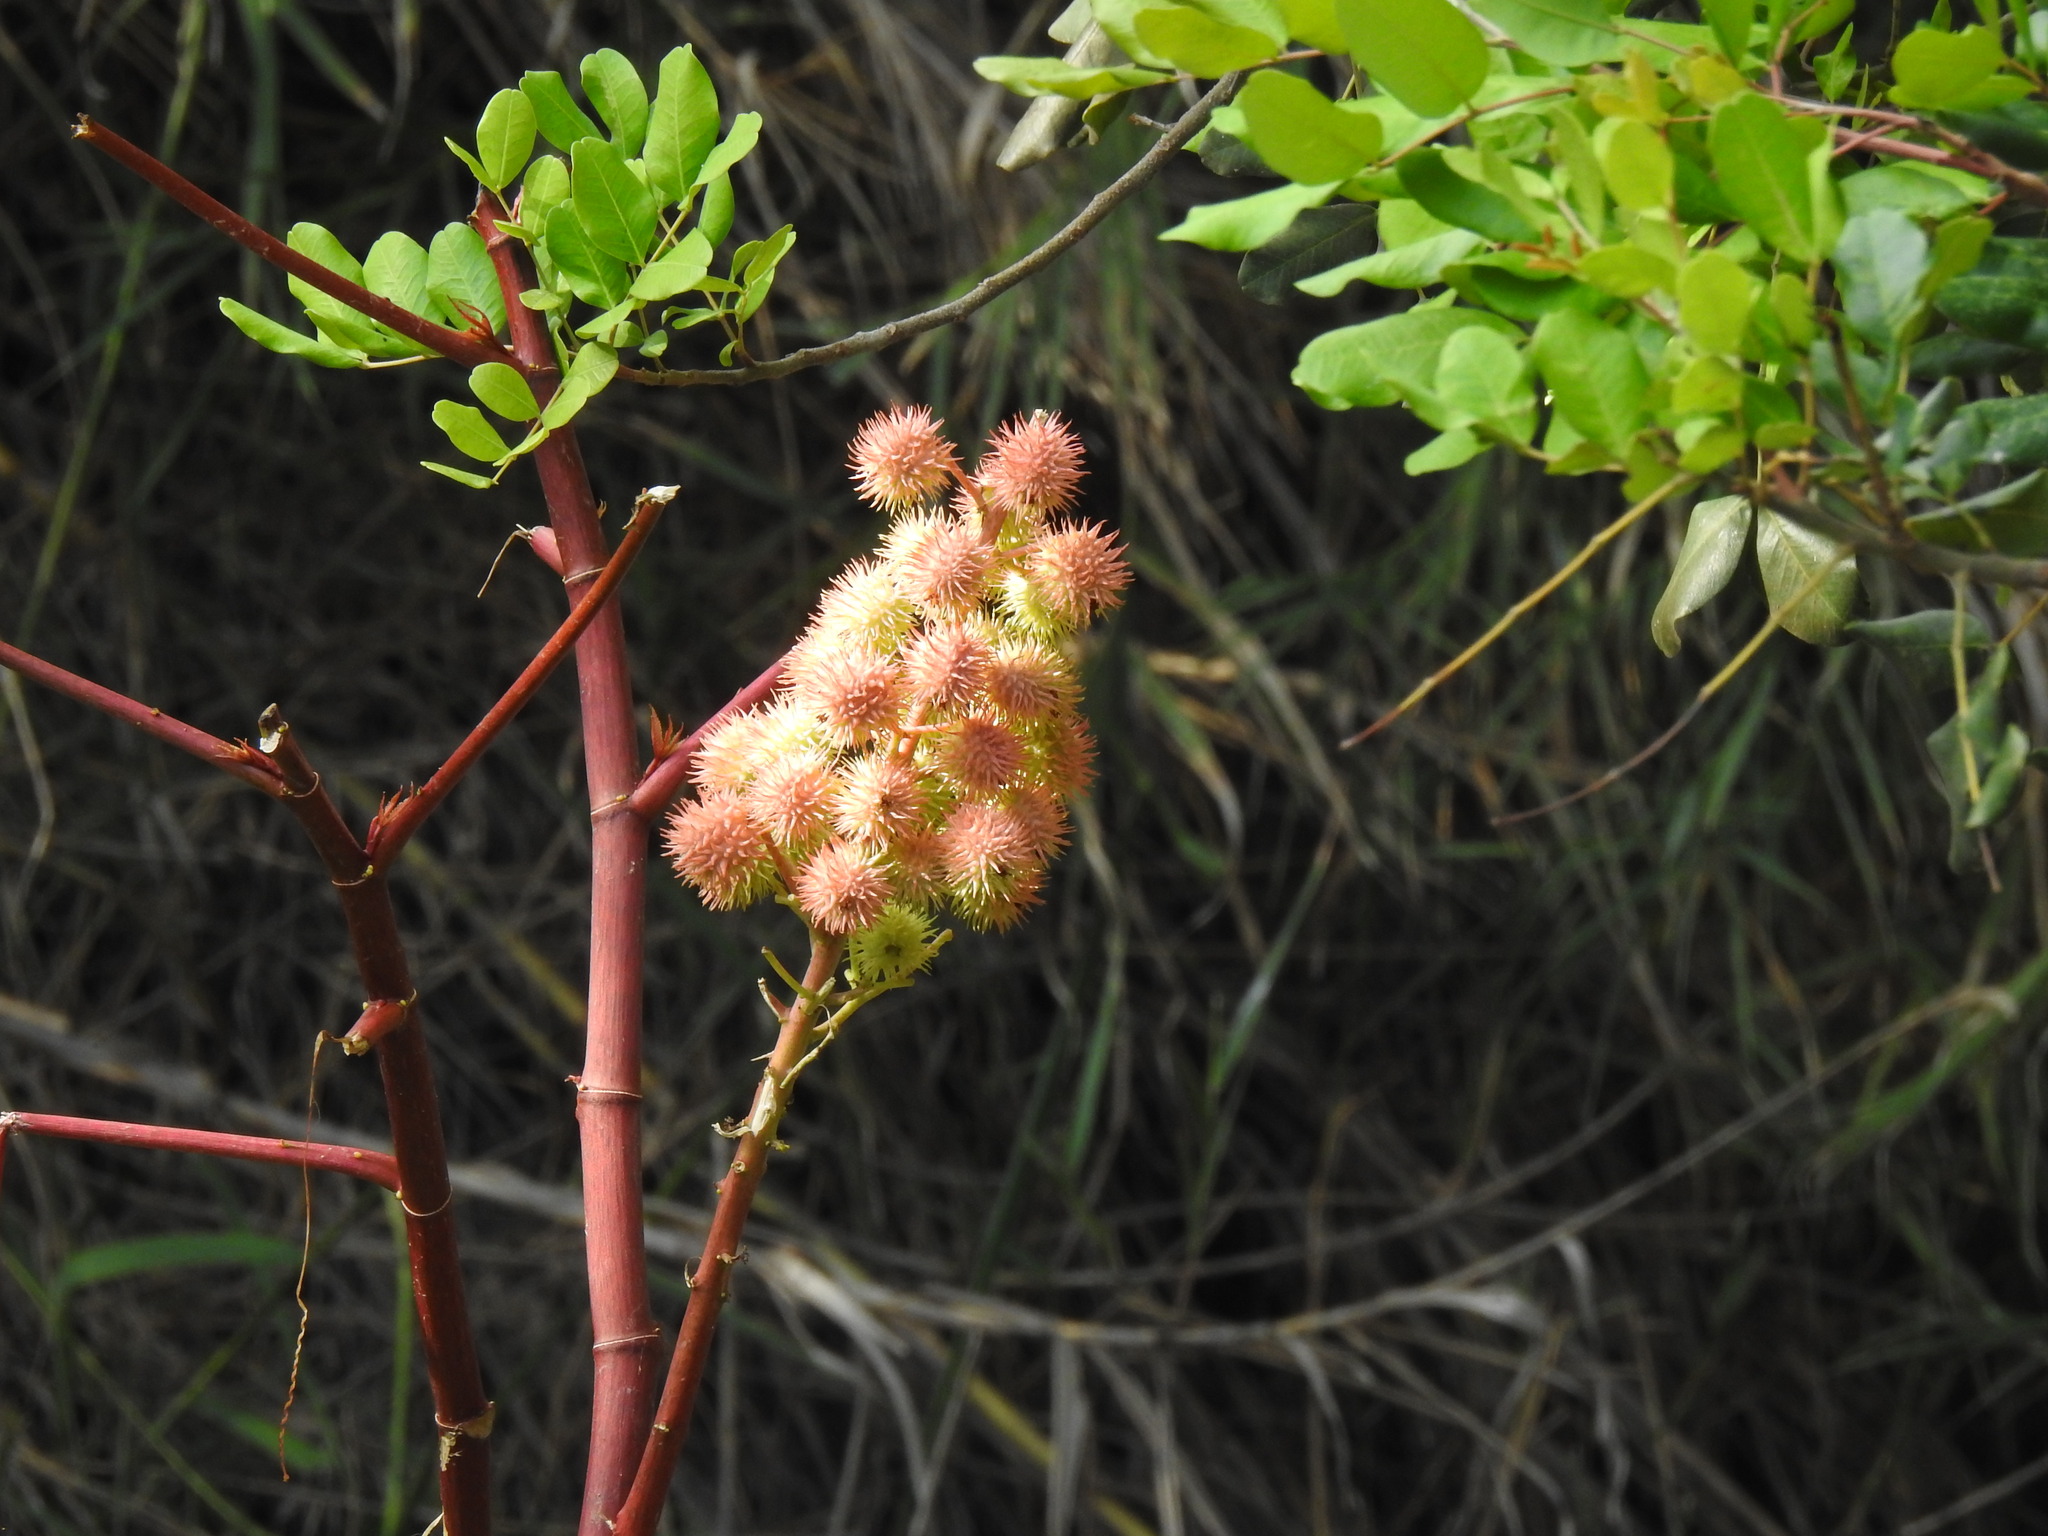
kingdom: Plantae
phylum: Tracheophyta
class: Magnoliopsida
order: Malpighiales
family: Euphorbiaceae
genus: Ricinus
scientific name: Ricinus communis
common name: Castor-oil-plant
